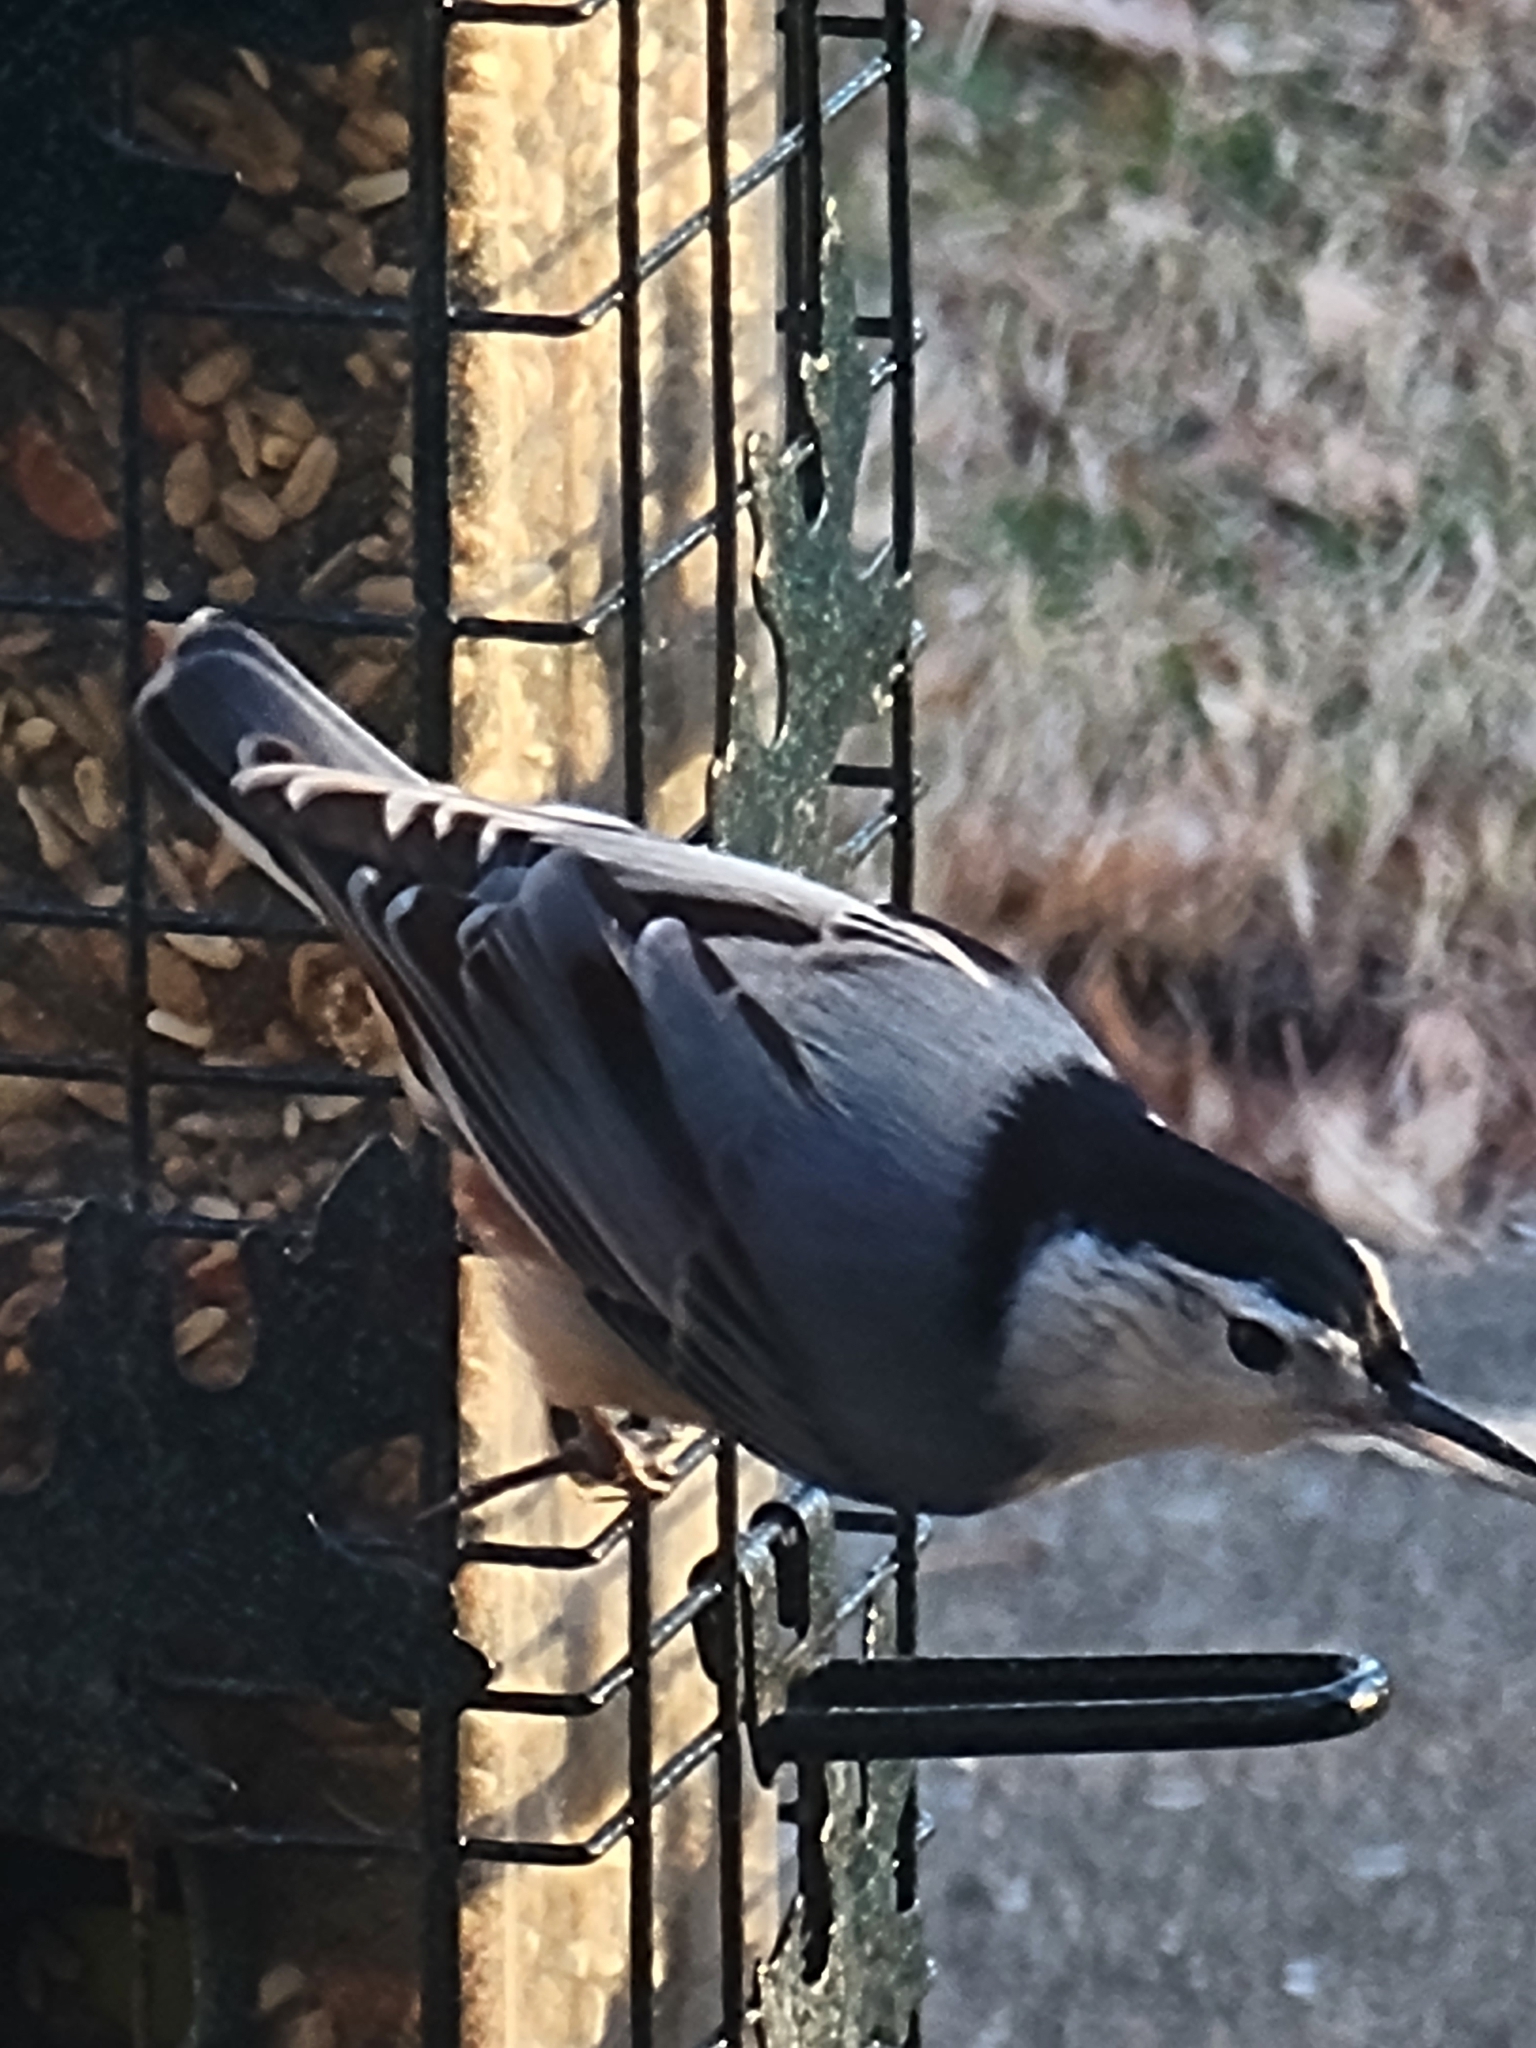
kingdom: Animalia
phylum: Chordata
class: Aves
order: Passeriformes
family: Sittidae
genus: Sitta
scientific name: Sitta carolinensis
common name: White-breasted nuthatch
